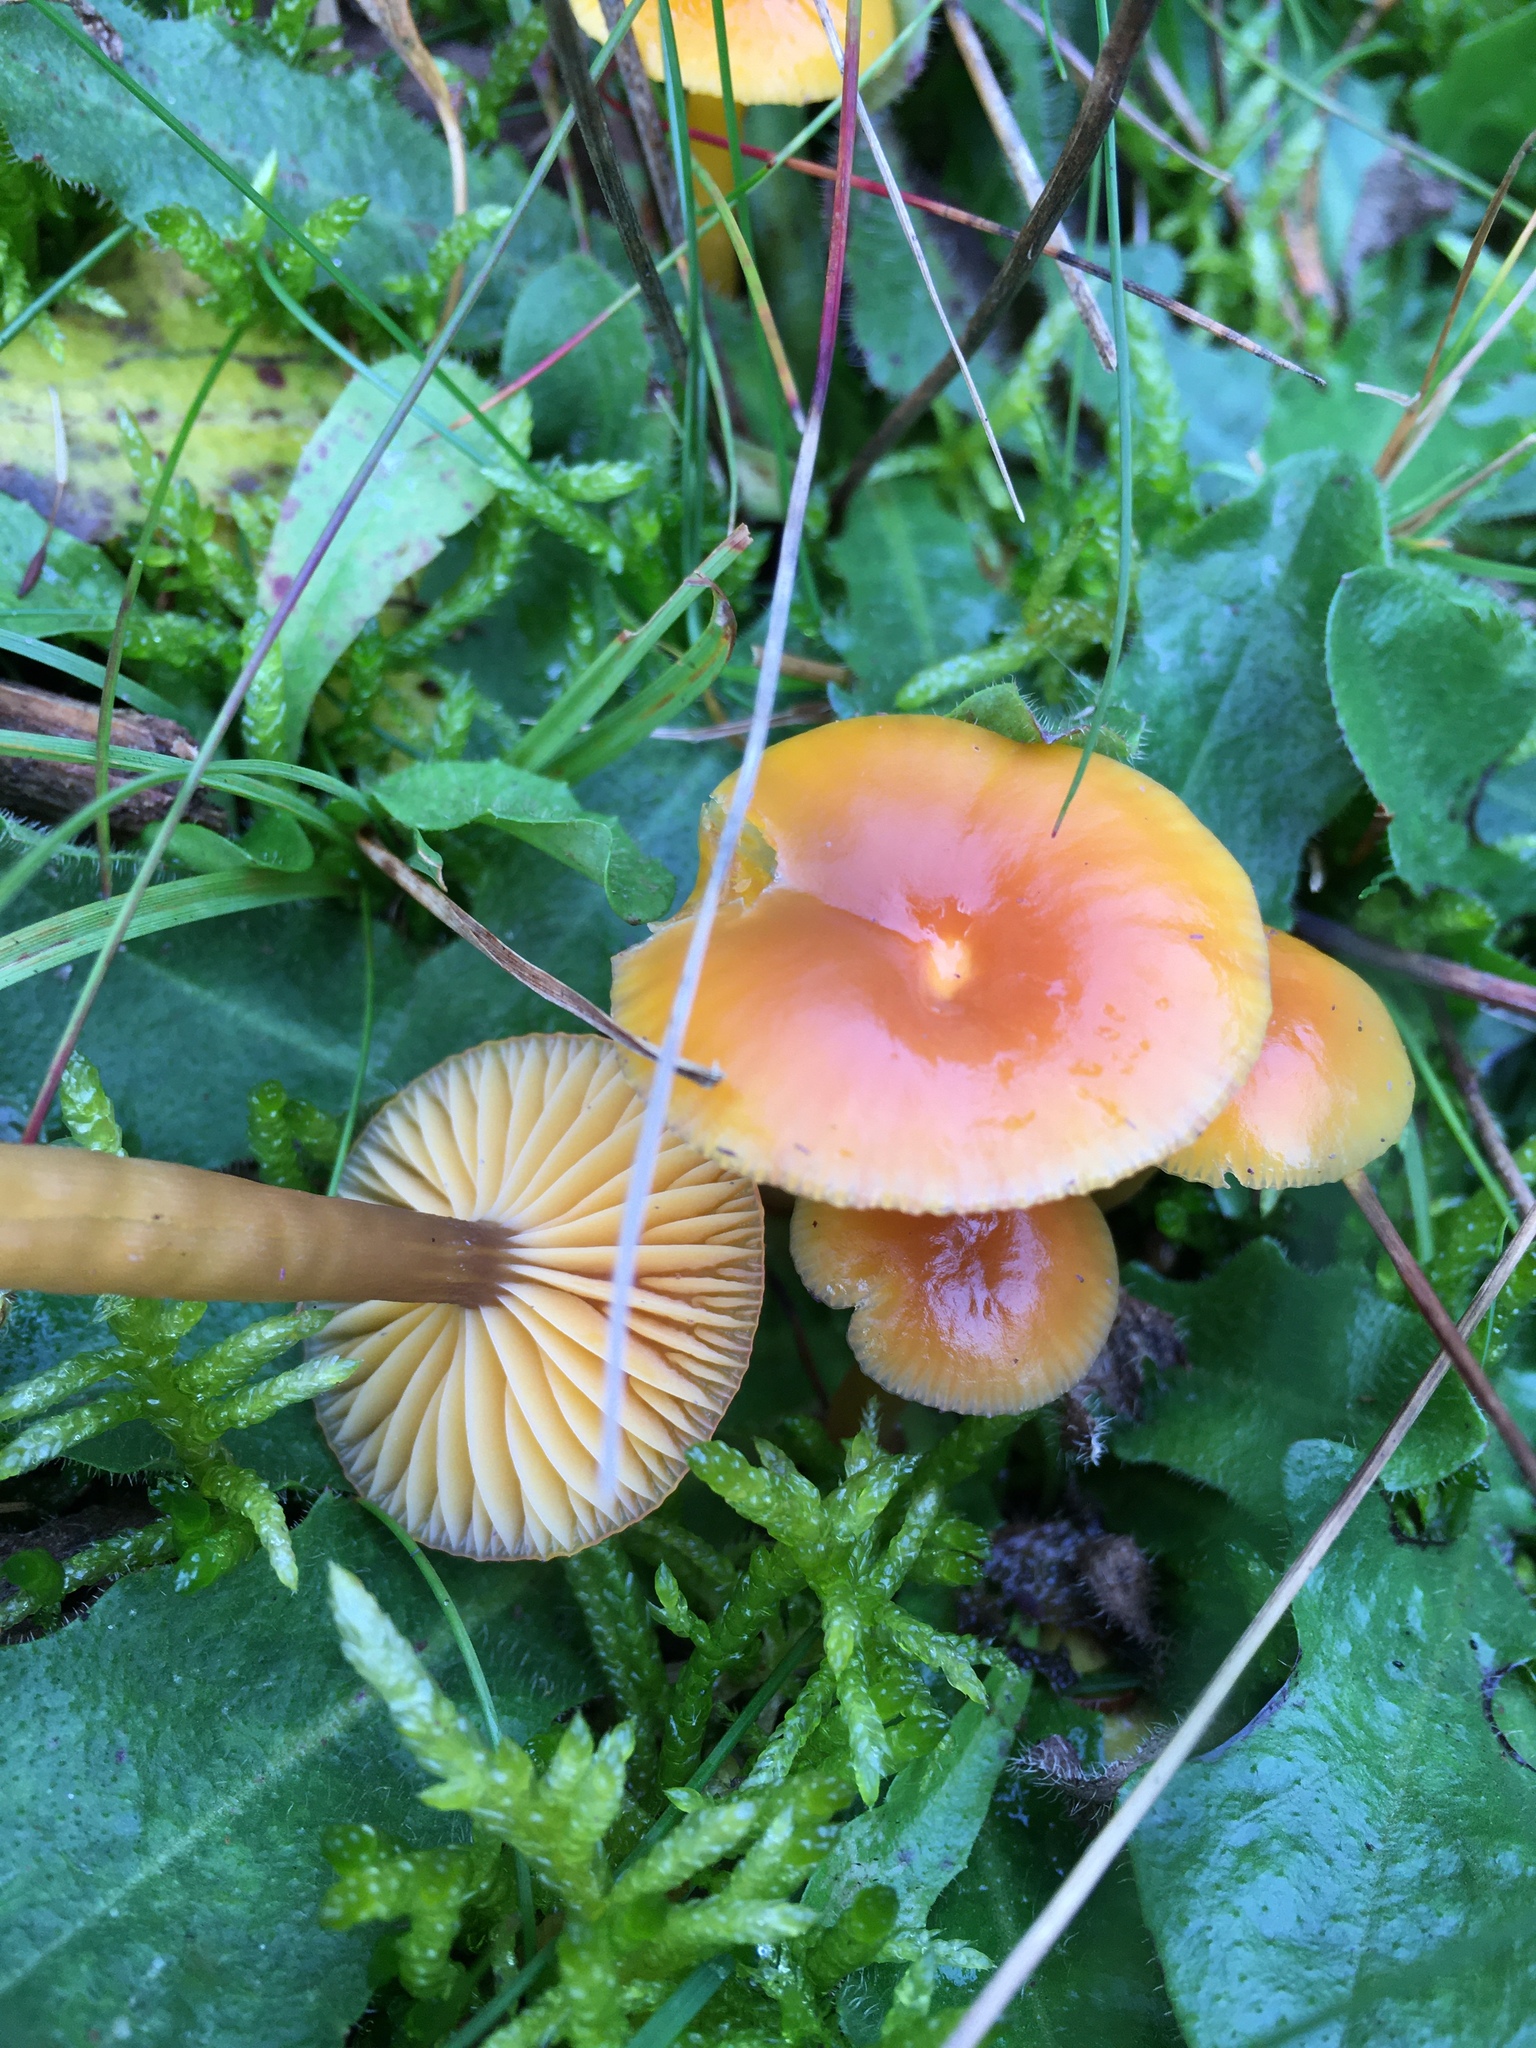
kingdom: Fungi
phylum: Basidiomycota
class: Agaricomycetes
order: Agaricales
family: Hygrophoraceae
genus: Gliophorus
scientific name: Gliophorus laetus
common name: Heath waxcap
